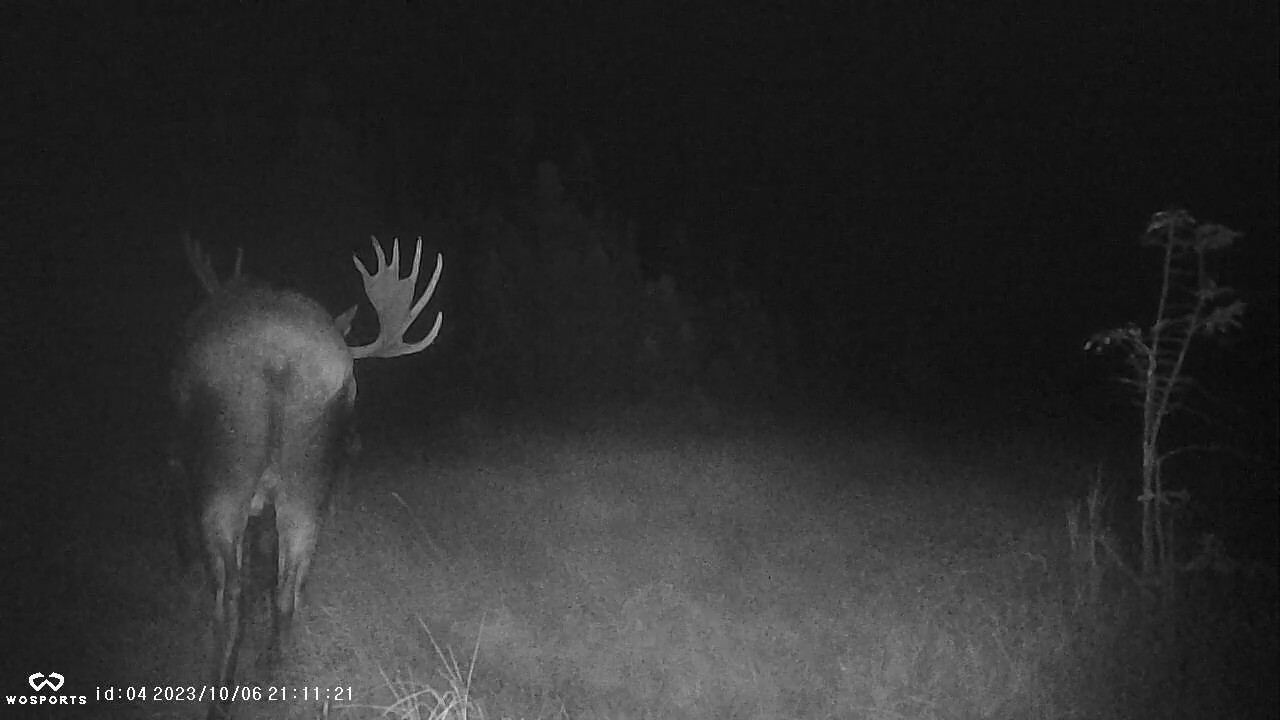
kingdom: Animalia
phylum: Chordata
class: Mammalia
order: Artiodactyla
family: Cervidae
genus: Alces
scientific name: Alces alces
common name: Moose
